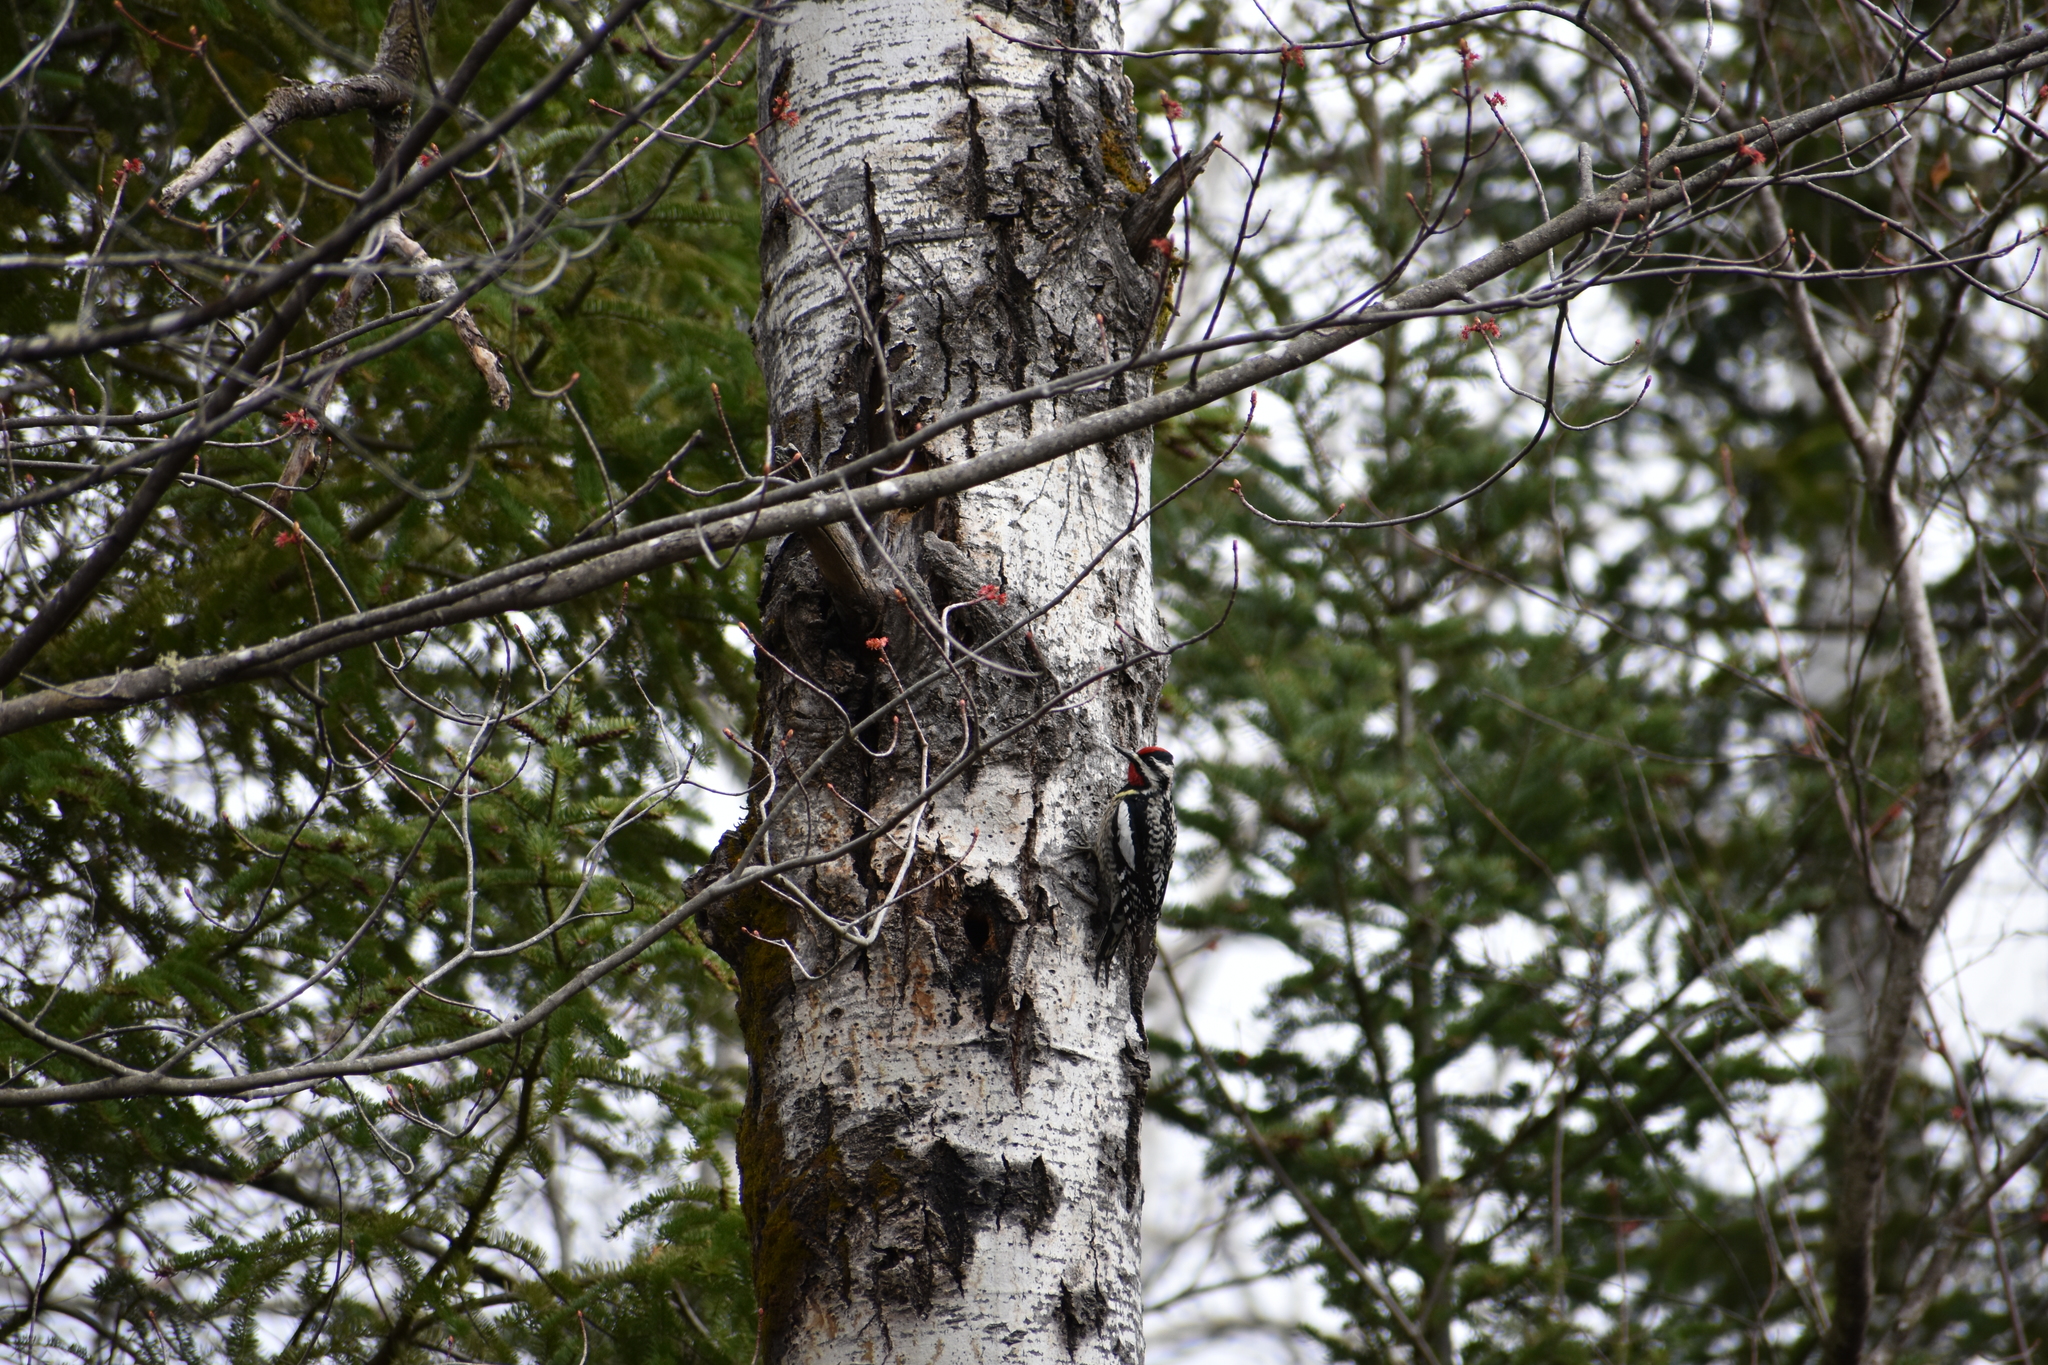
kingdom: Animalia
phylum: Chordata
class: Aves
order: Piciformes
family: Picidae
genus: Sphyrapicus
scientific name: Sphyrapicus varius
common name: Yellow-bellied sapsucker
